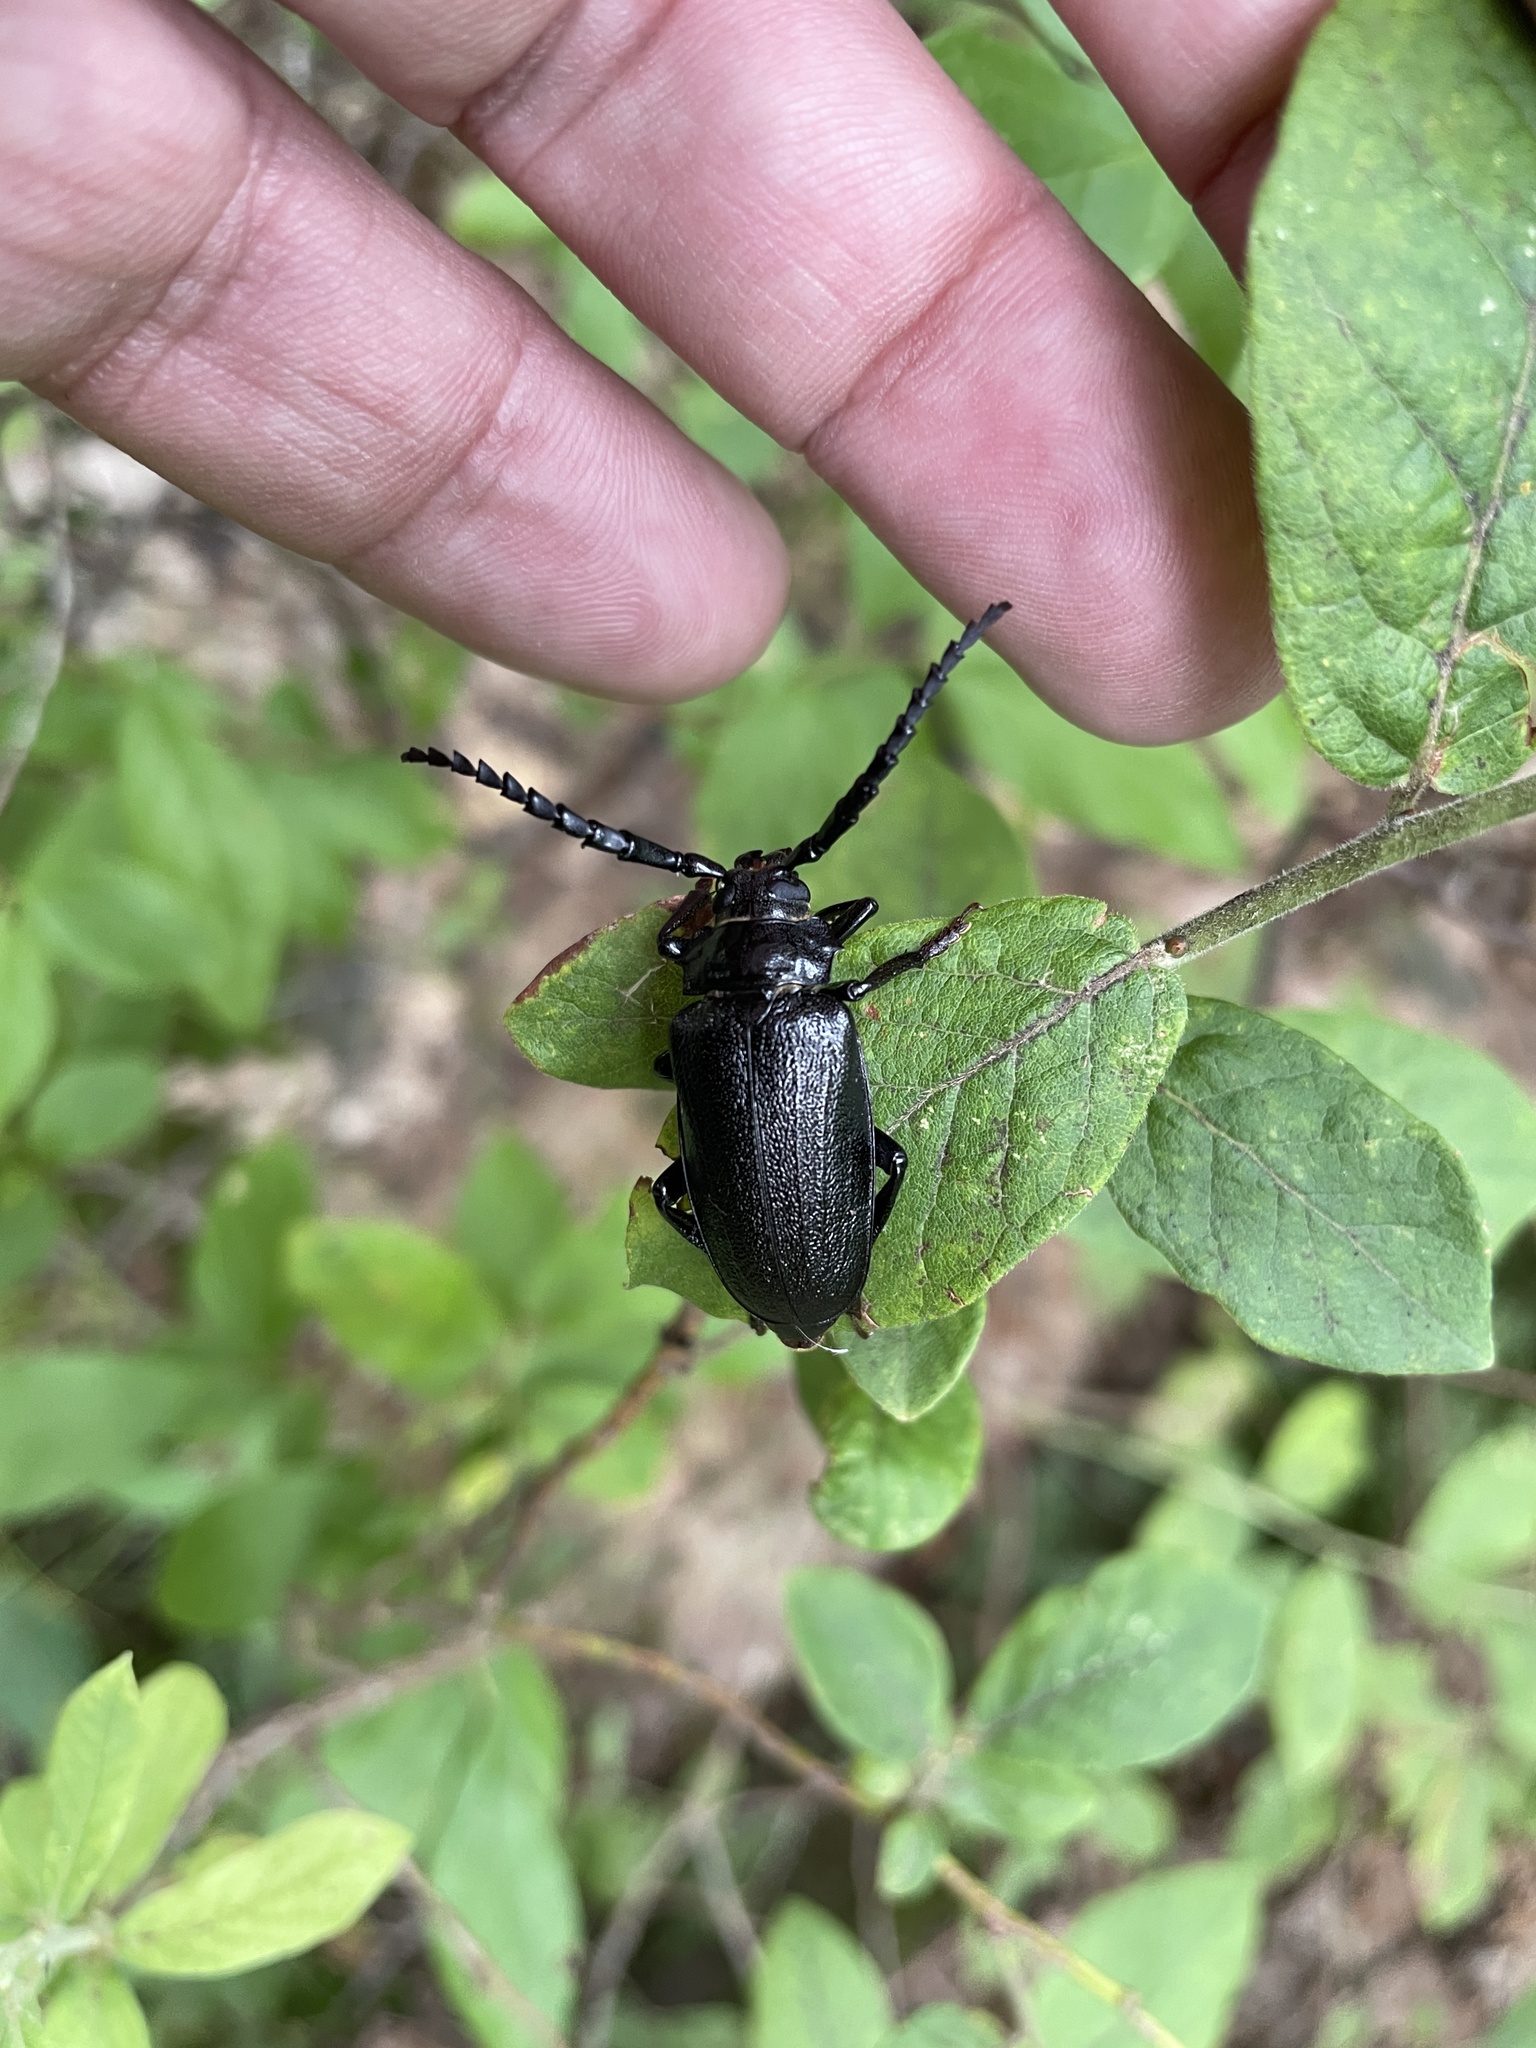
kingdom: Animalia
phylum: Arthropoda
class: Insecta
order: Coleoptera
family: Cerambycidae
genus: Prionus
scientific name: Prionus laticollis
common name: Broad necked prionus
